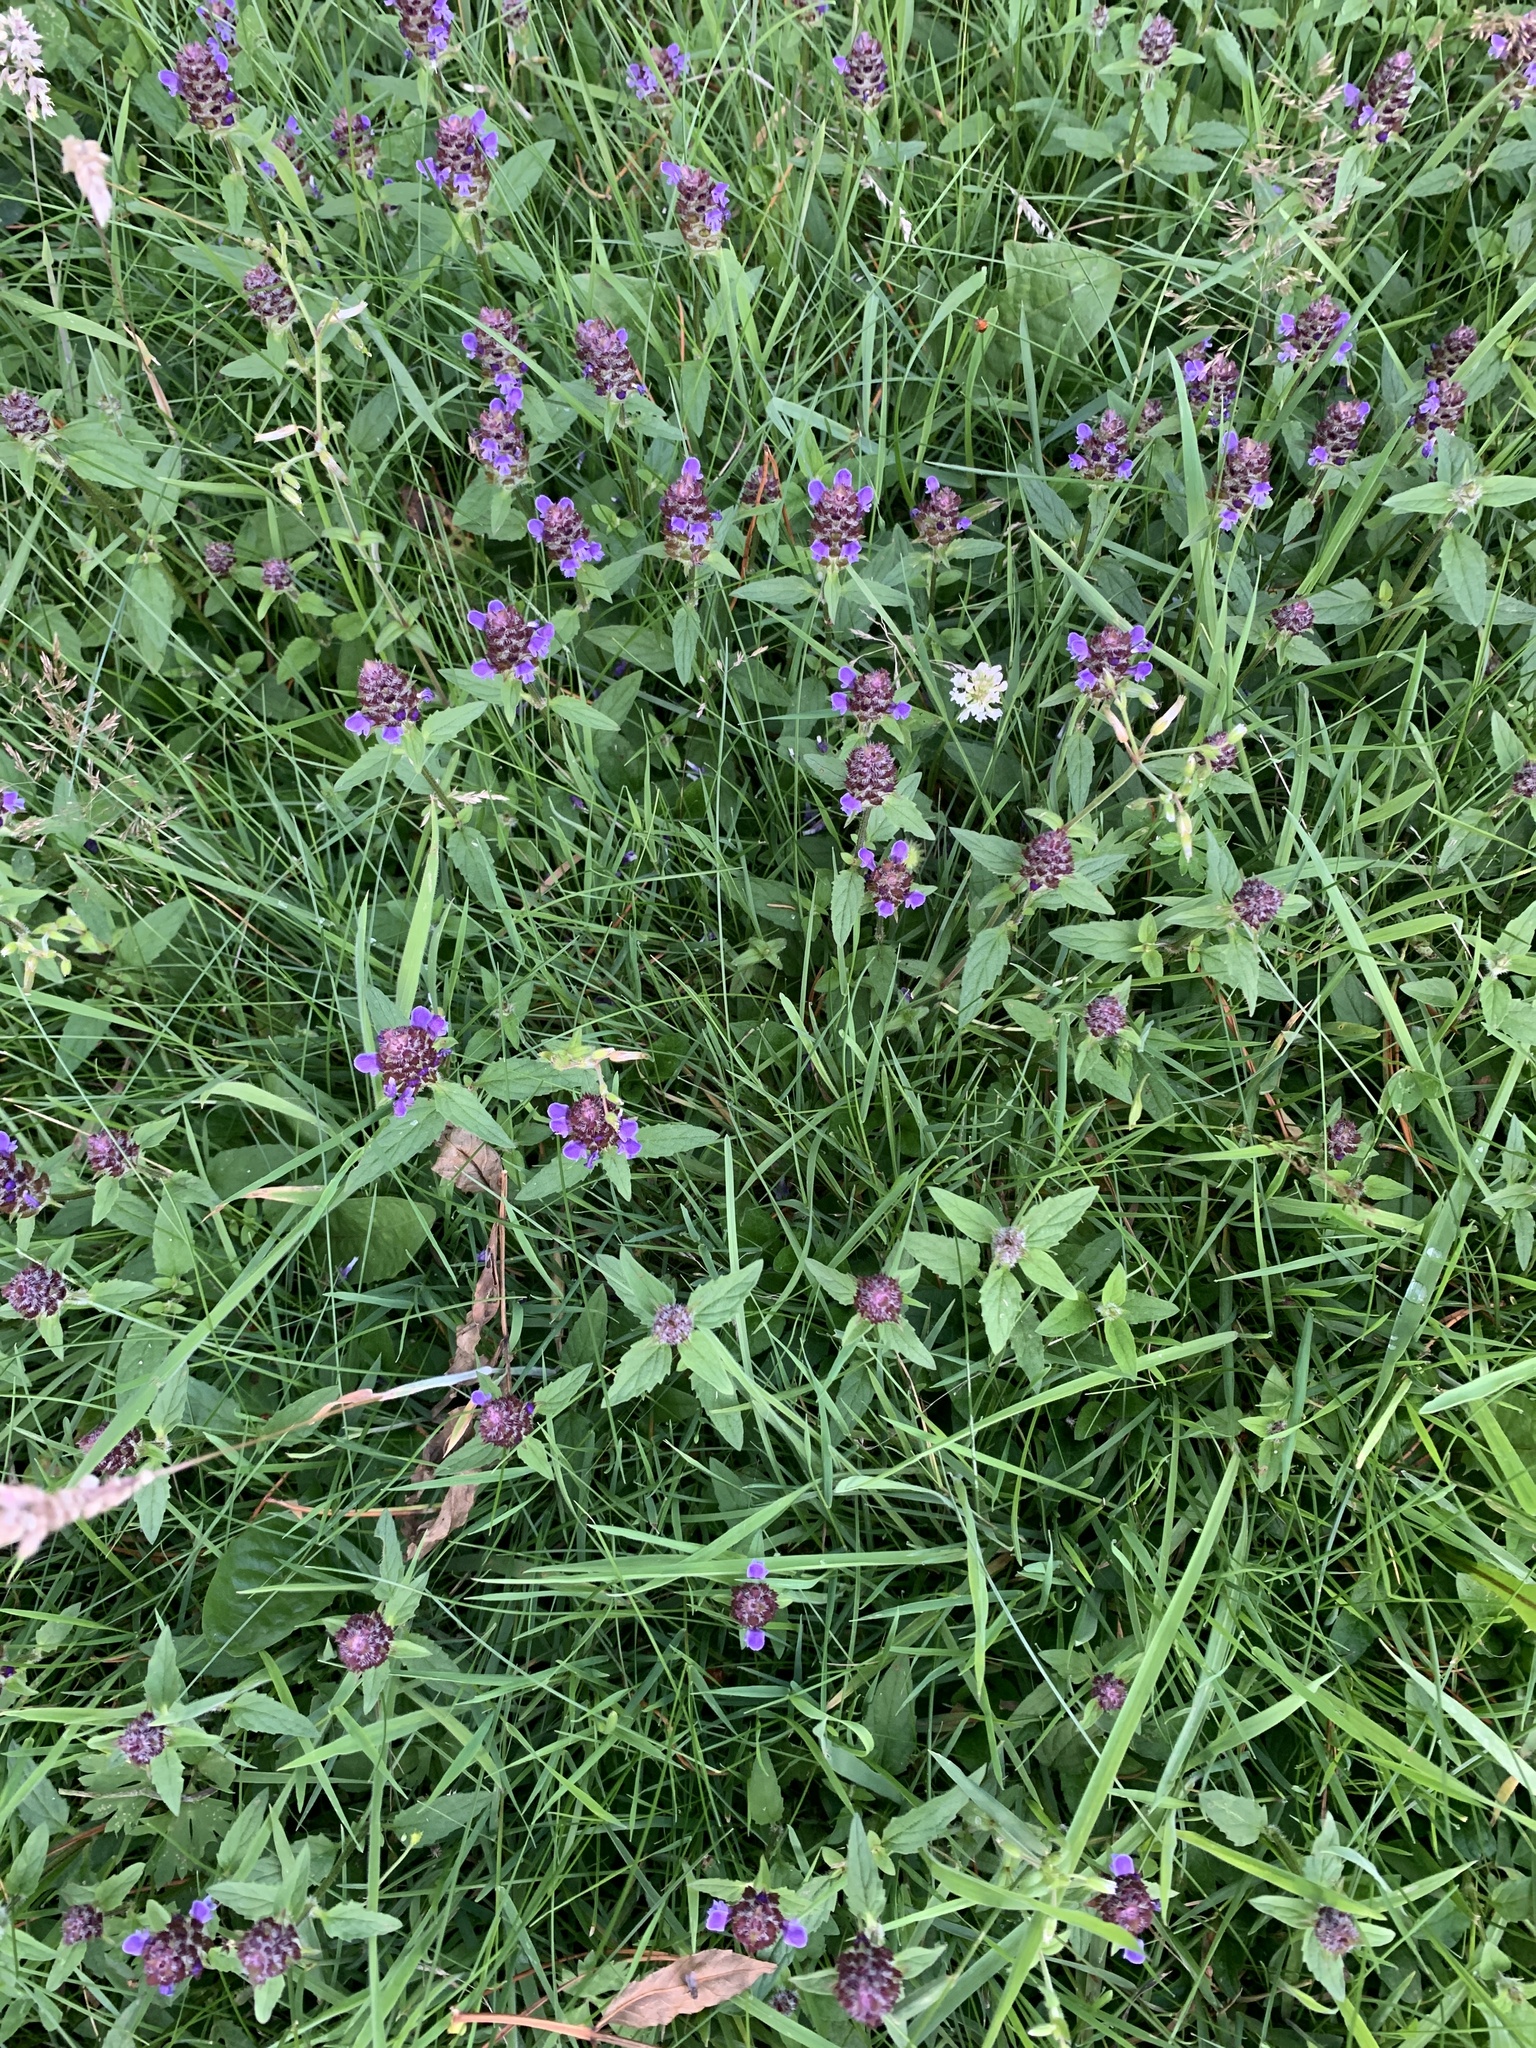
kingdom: Plantae
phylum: Tracheophyta
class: Magnoliopsida
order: Lamiales
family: Lamiaceae
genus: Prunella
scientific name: Prunella vulgaris
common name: Heal-all
